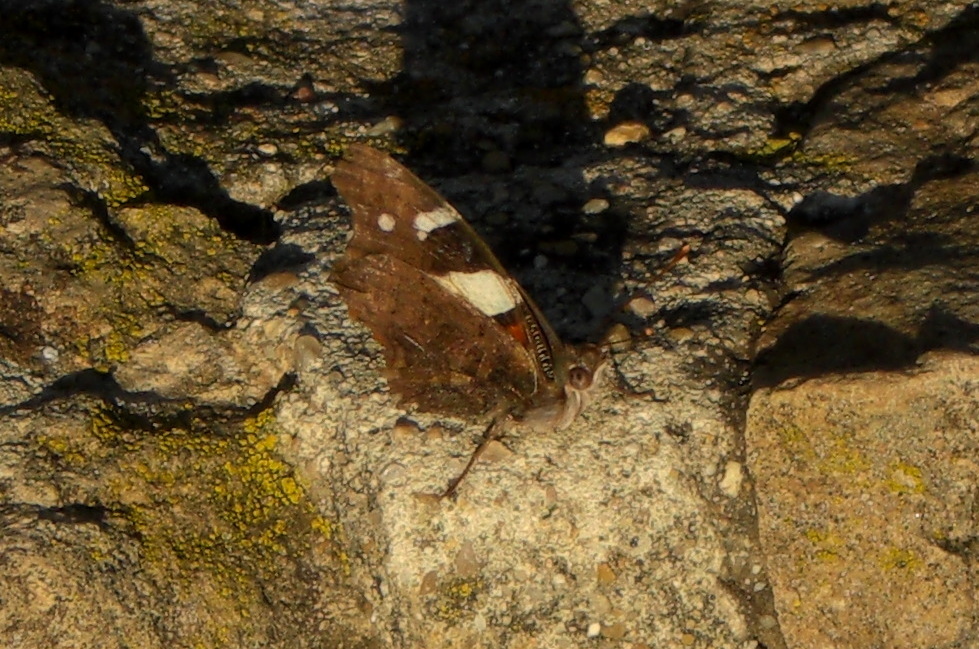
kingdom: Animalia
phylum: Arthropoda
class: Insecta
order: Lepidoptera
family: Nymphalidae
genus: Vanessa
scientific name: Vanessa itea
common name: Yellow admiral
